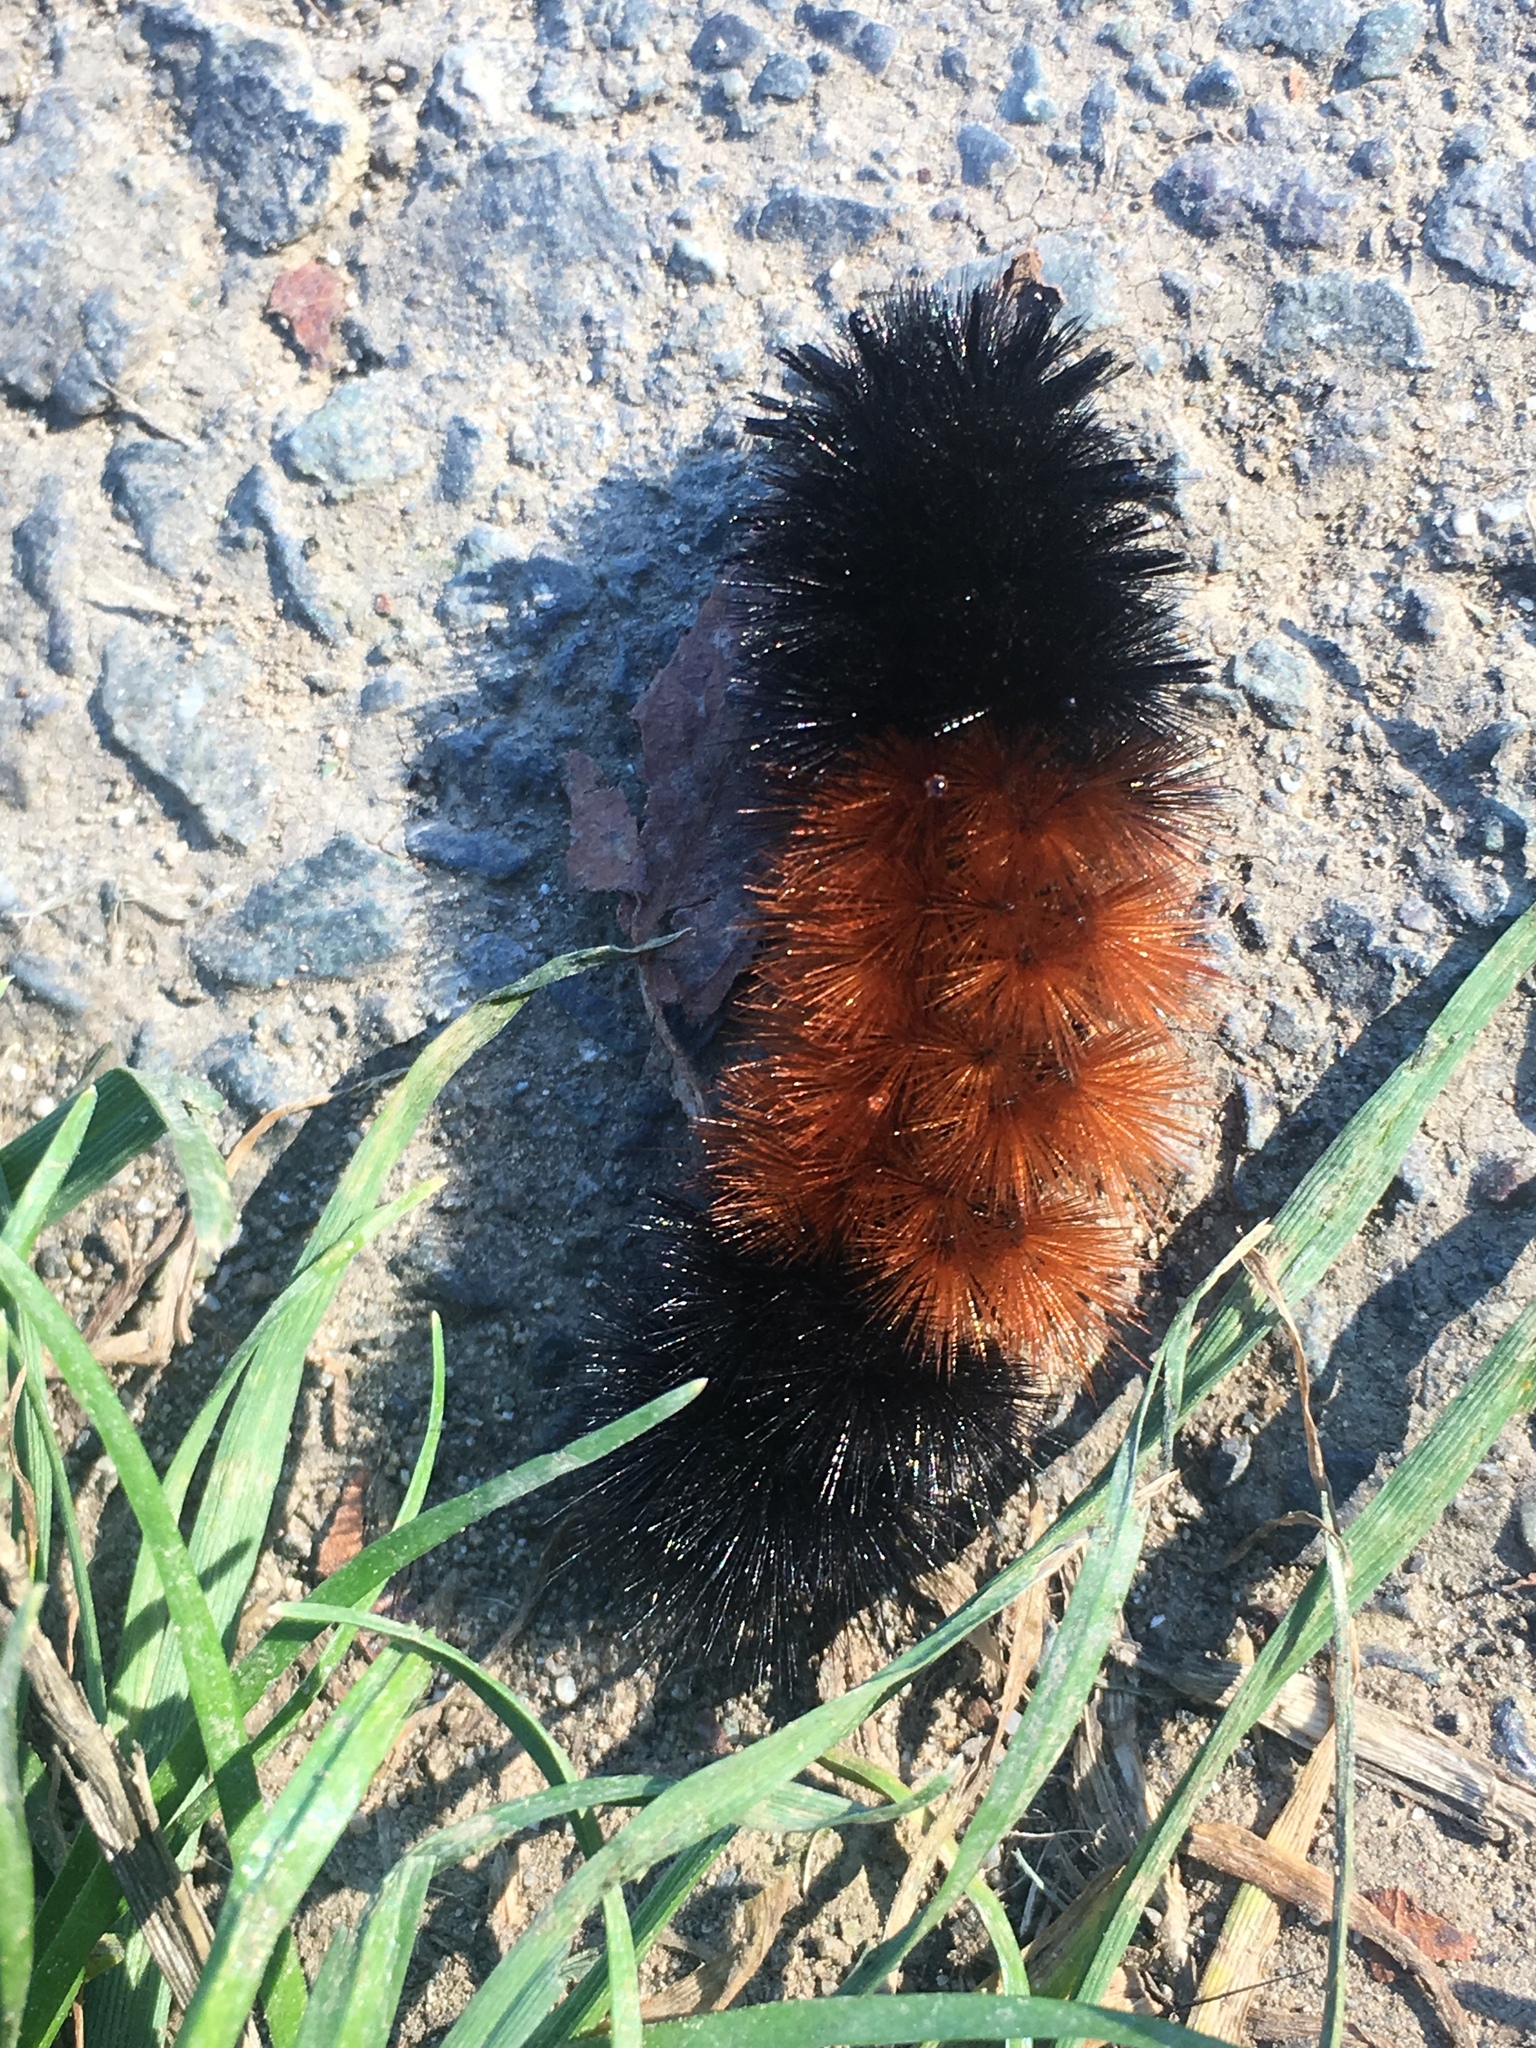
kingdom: Animalia
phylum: Arthropoda
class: Insecta
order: Lepidoptera
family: Erebidae
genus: Pyrrharctia
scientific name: Pyrrharctia isabella
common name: Isabella tiger moth
